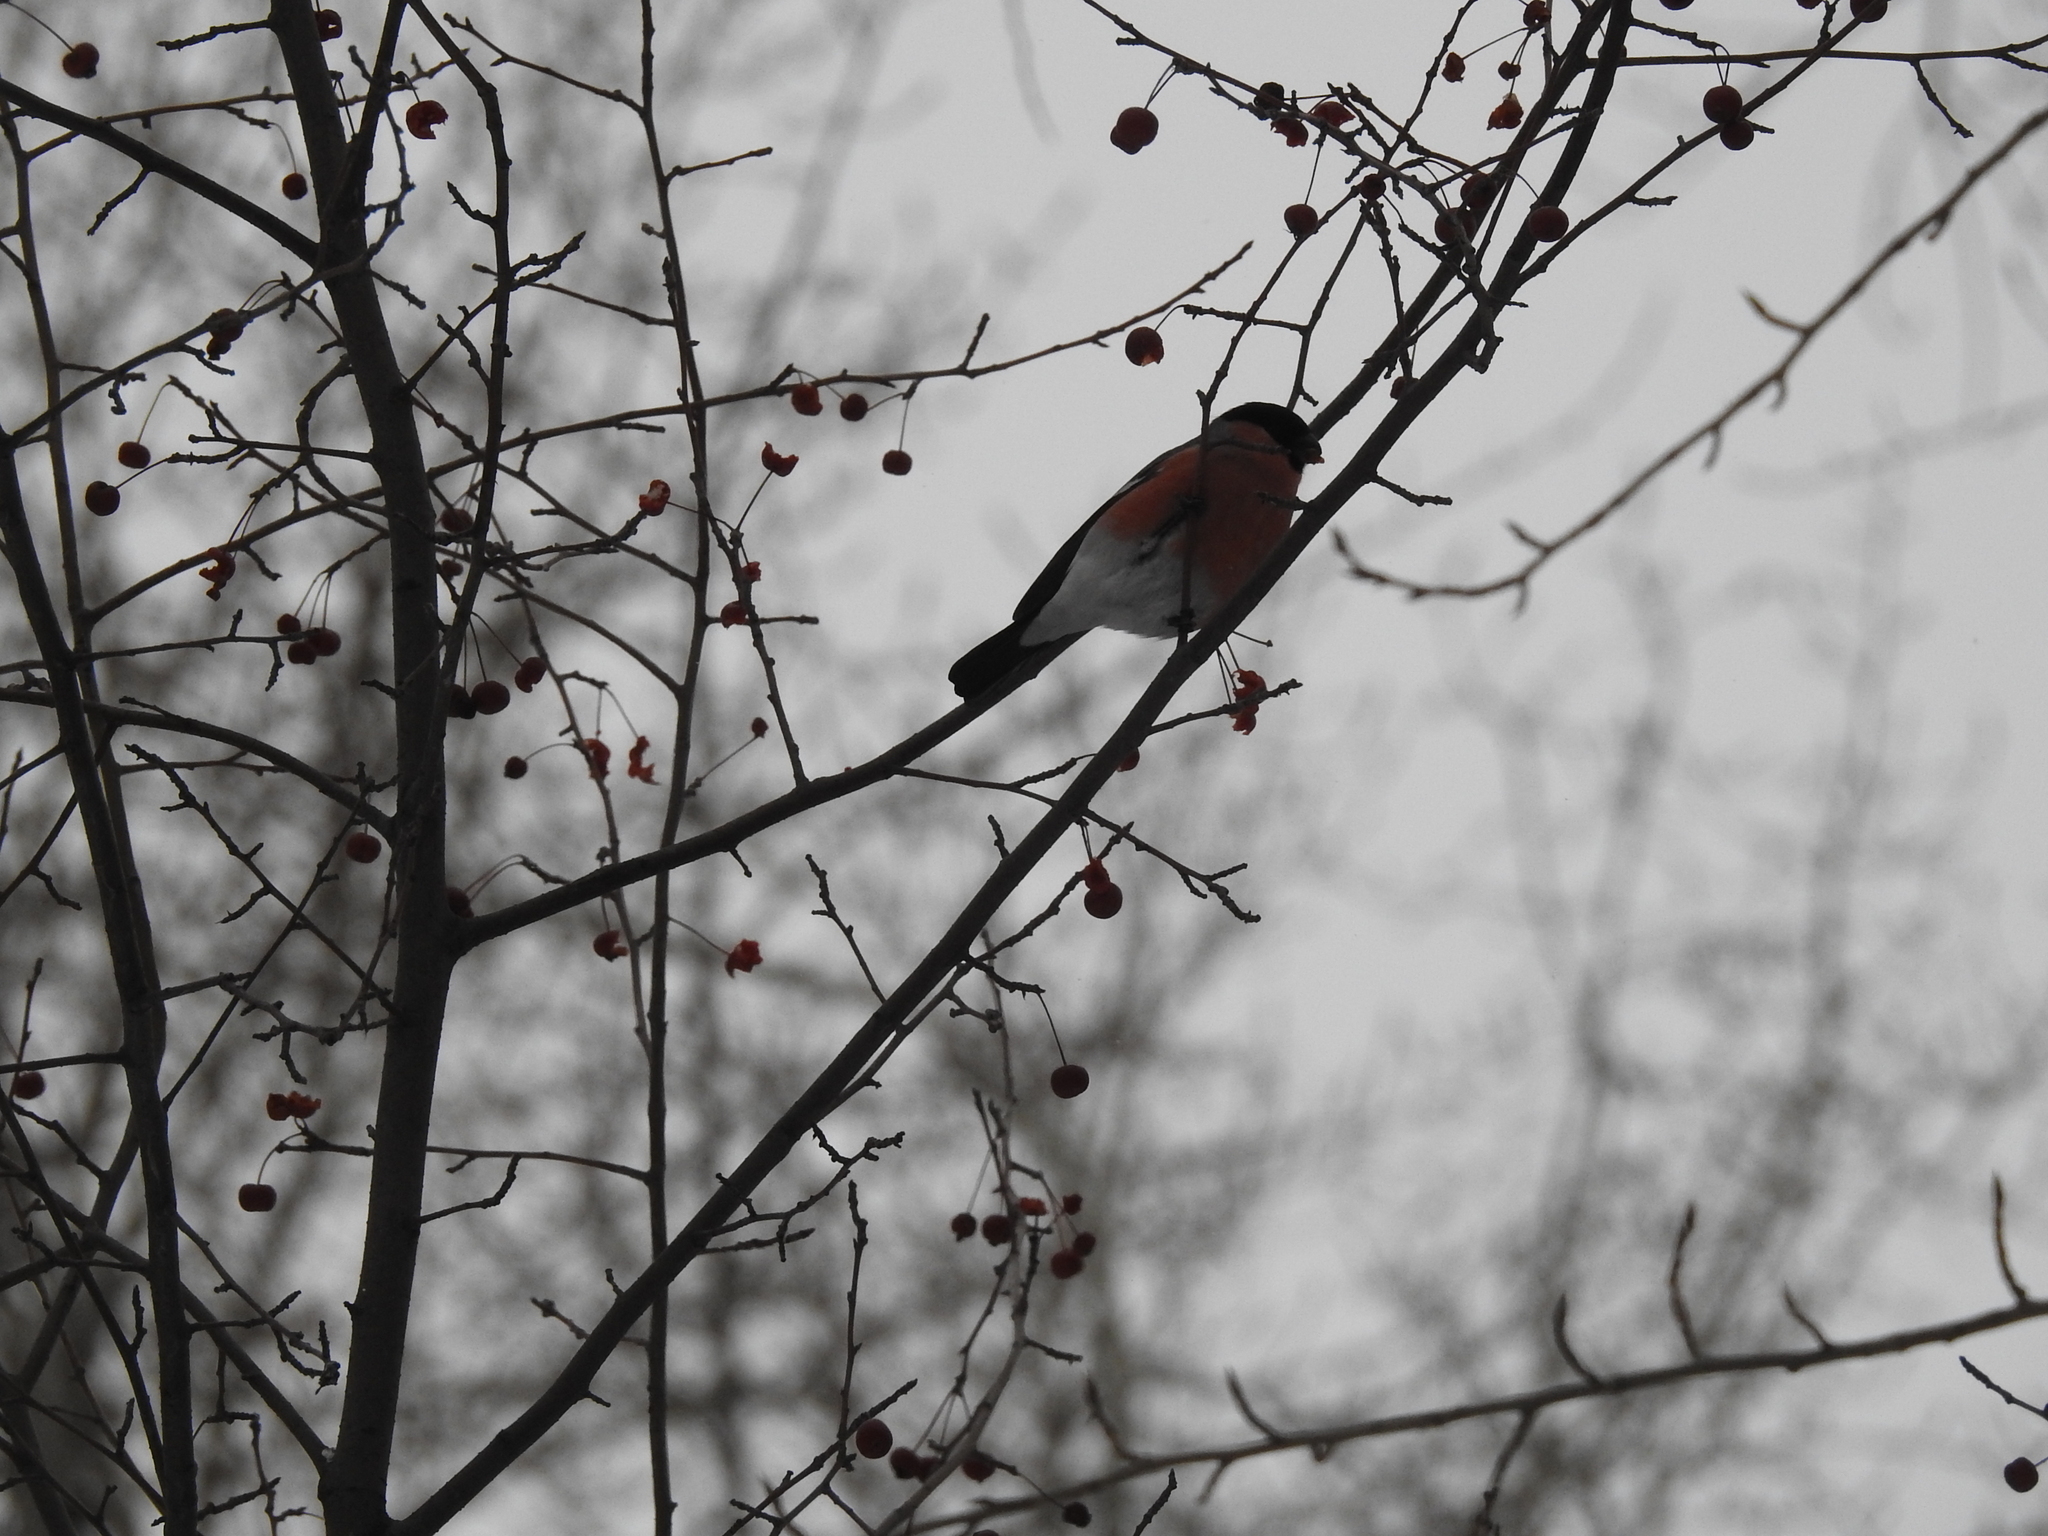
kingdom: Animalia
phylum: Chordata
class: Aves
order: Passeriformes
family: Fringillidae
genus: Pyrrhula
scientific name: Pyrrhula pyrrhula
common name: Eurasian bullfinch
